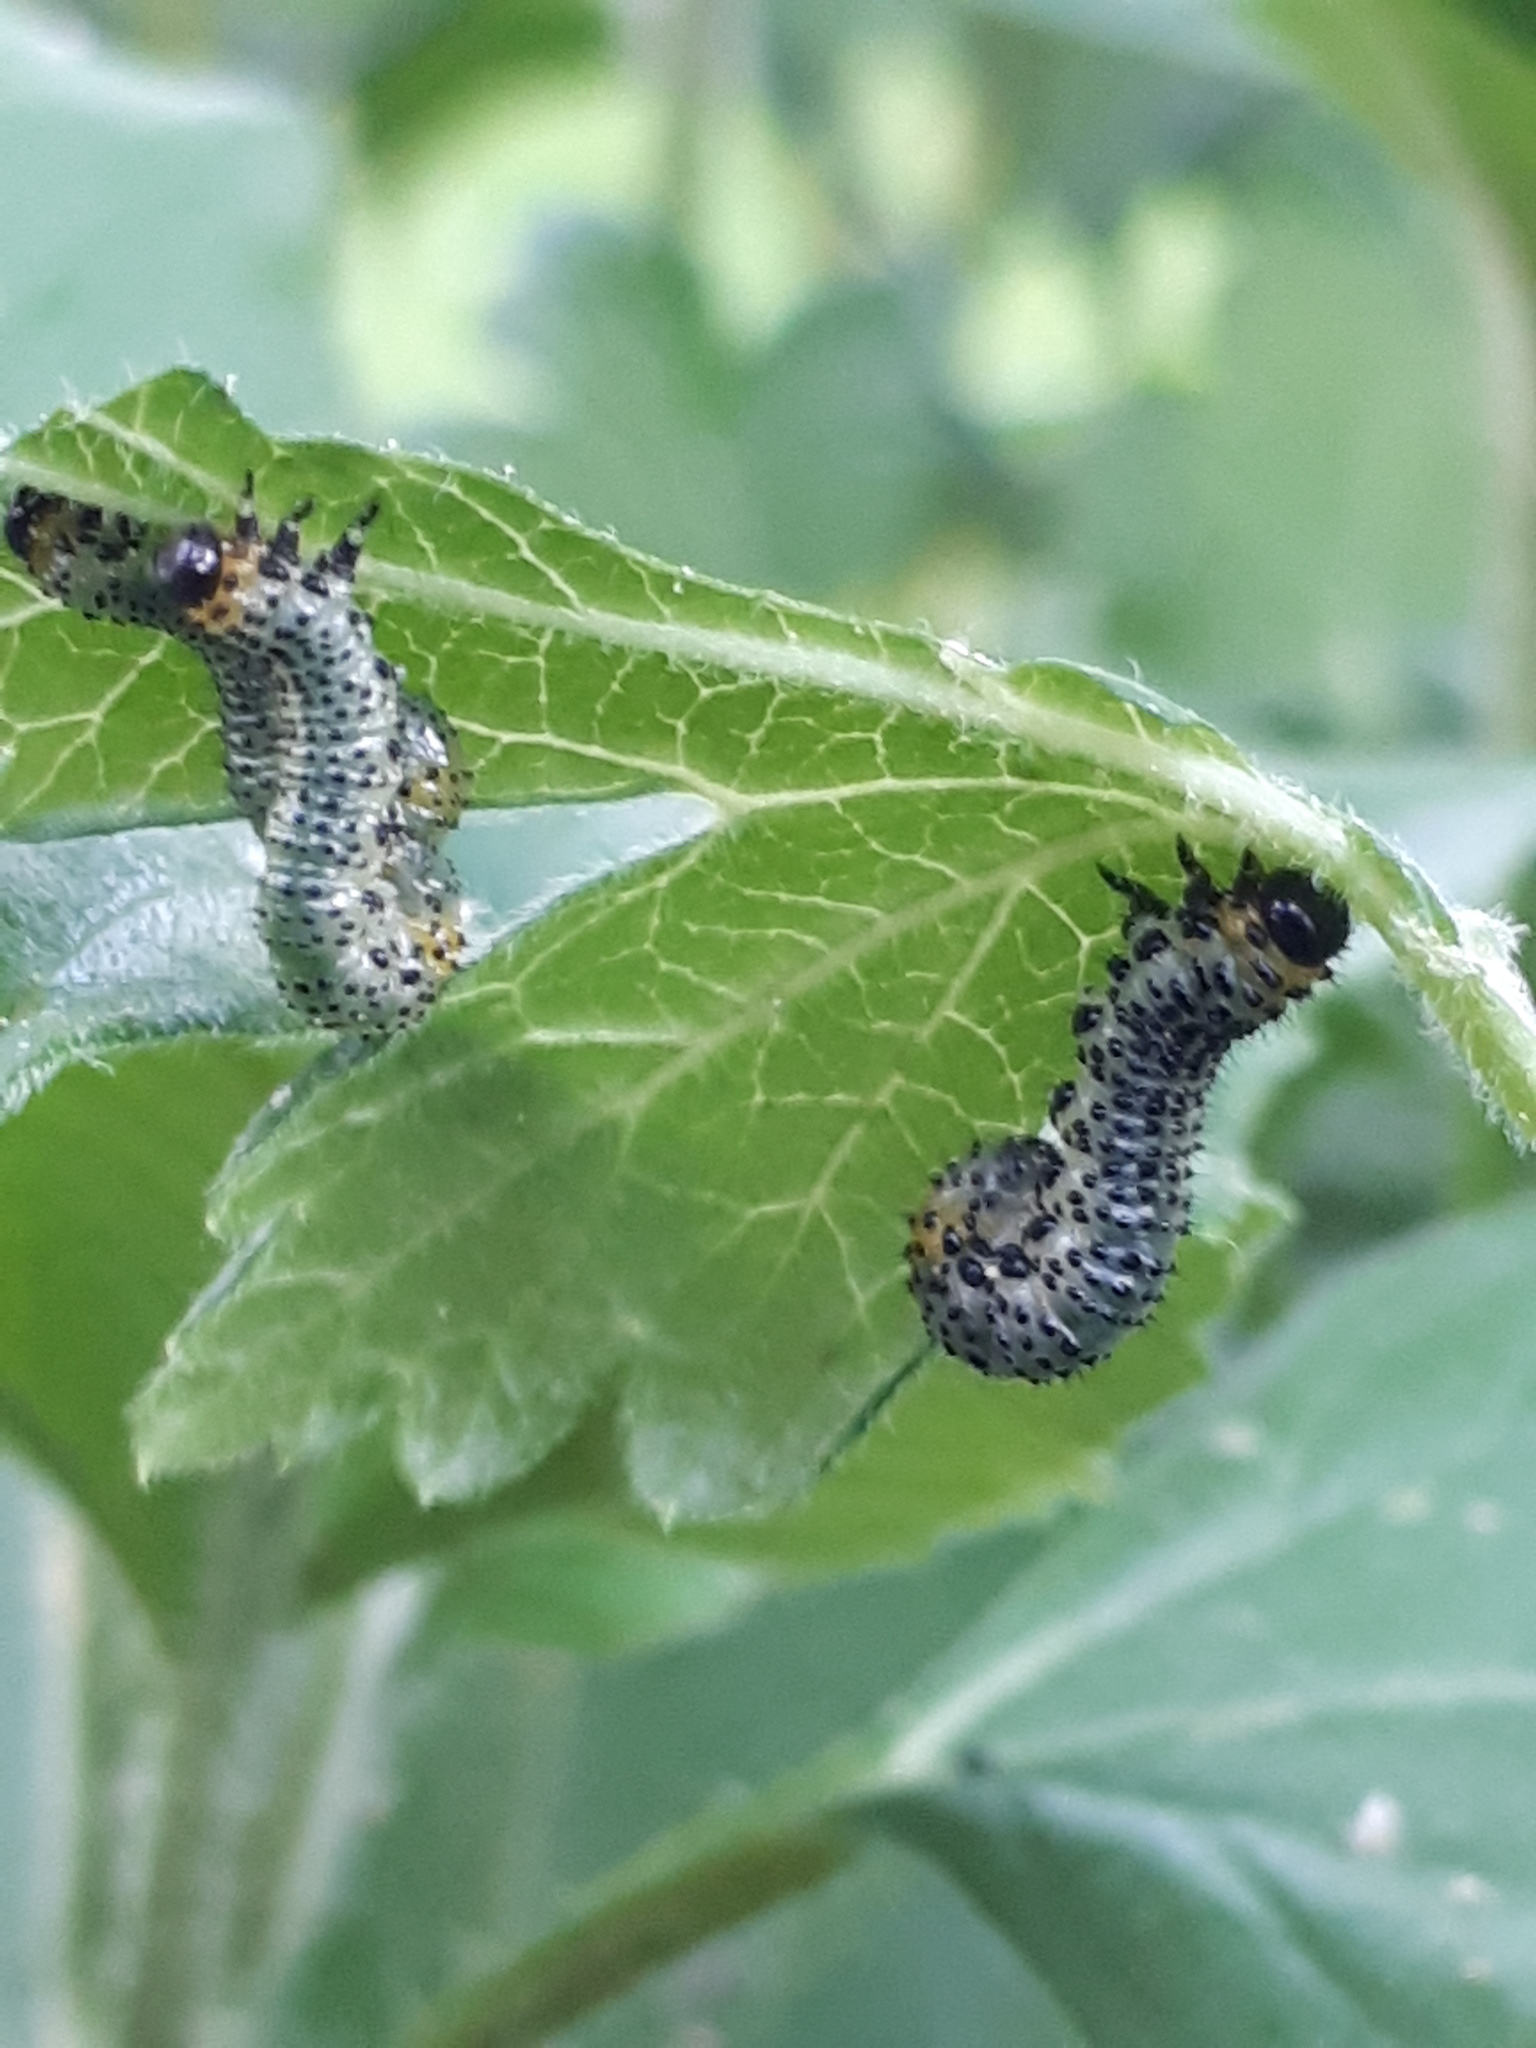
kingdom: Animalia
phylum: Arthropoda
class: Insecta
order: Hymenoptera
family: Tenthredinidae
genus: Nematus
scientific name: Nematus ribesii
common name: Imported currantworm
